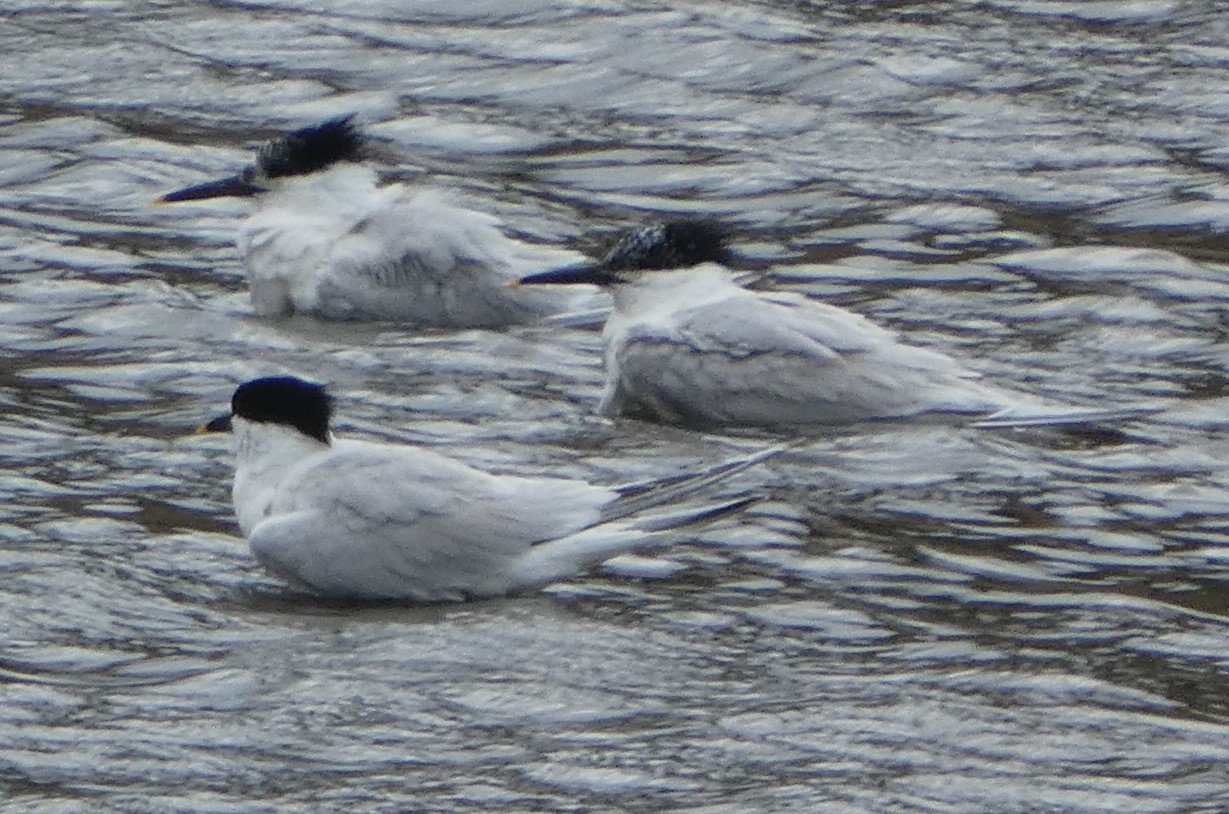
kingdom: Animalia
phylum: Chordata
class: Aves
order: Charadriiformes
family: Laridae
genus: Thalasseus
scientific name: Thalasseus sandvicensis
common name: Sandwich tern
